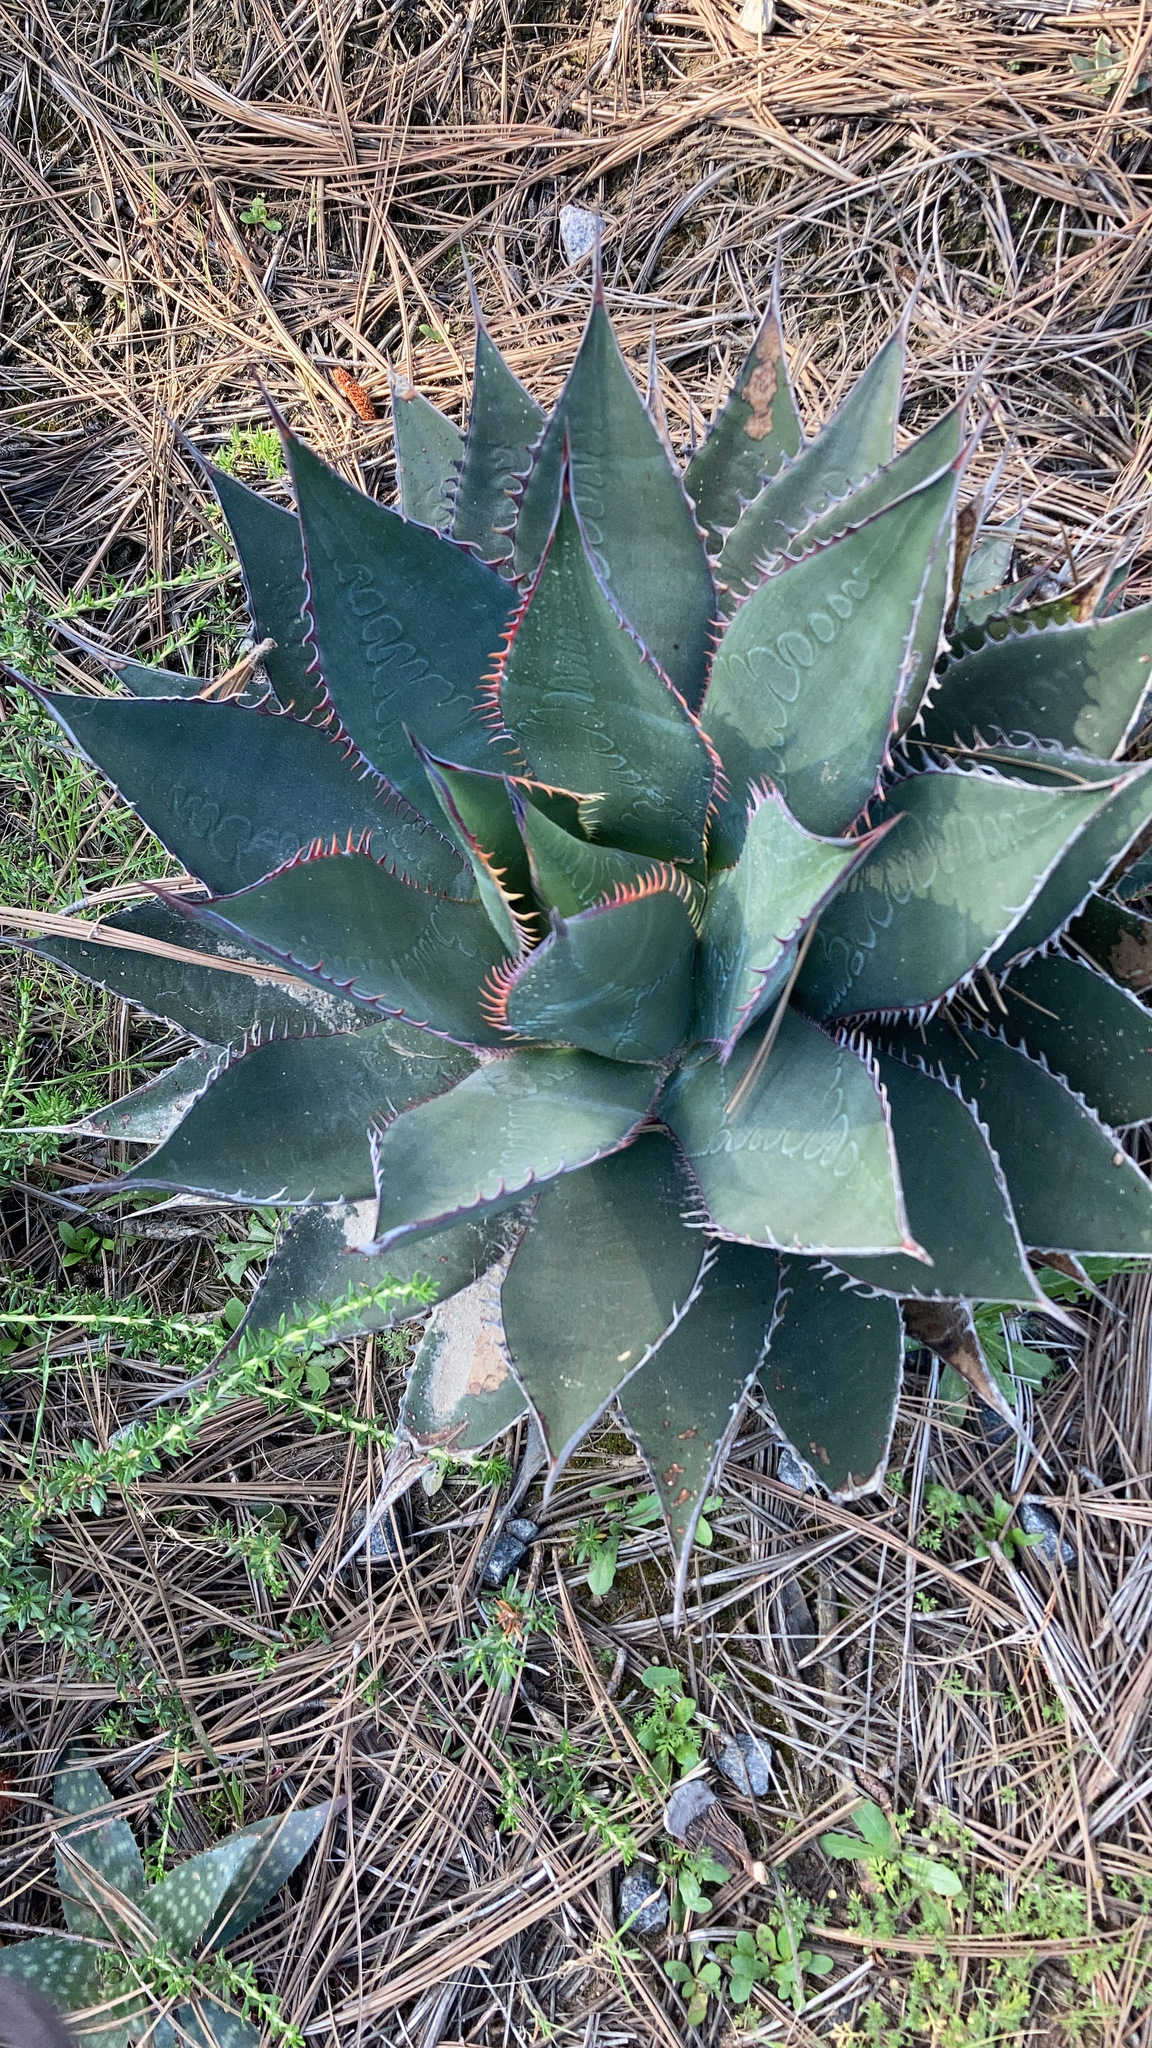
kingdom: Plantae
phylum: Tracheophyta
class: Liliopsida
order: Asparagales
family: Asparagaceae
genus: Agave
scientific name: Agave shawii
